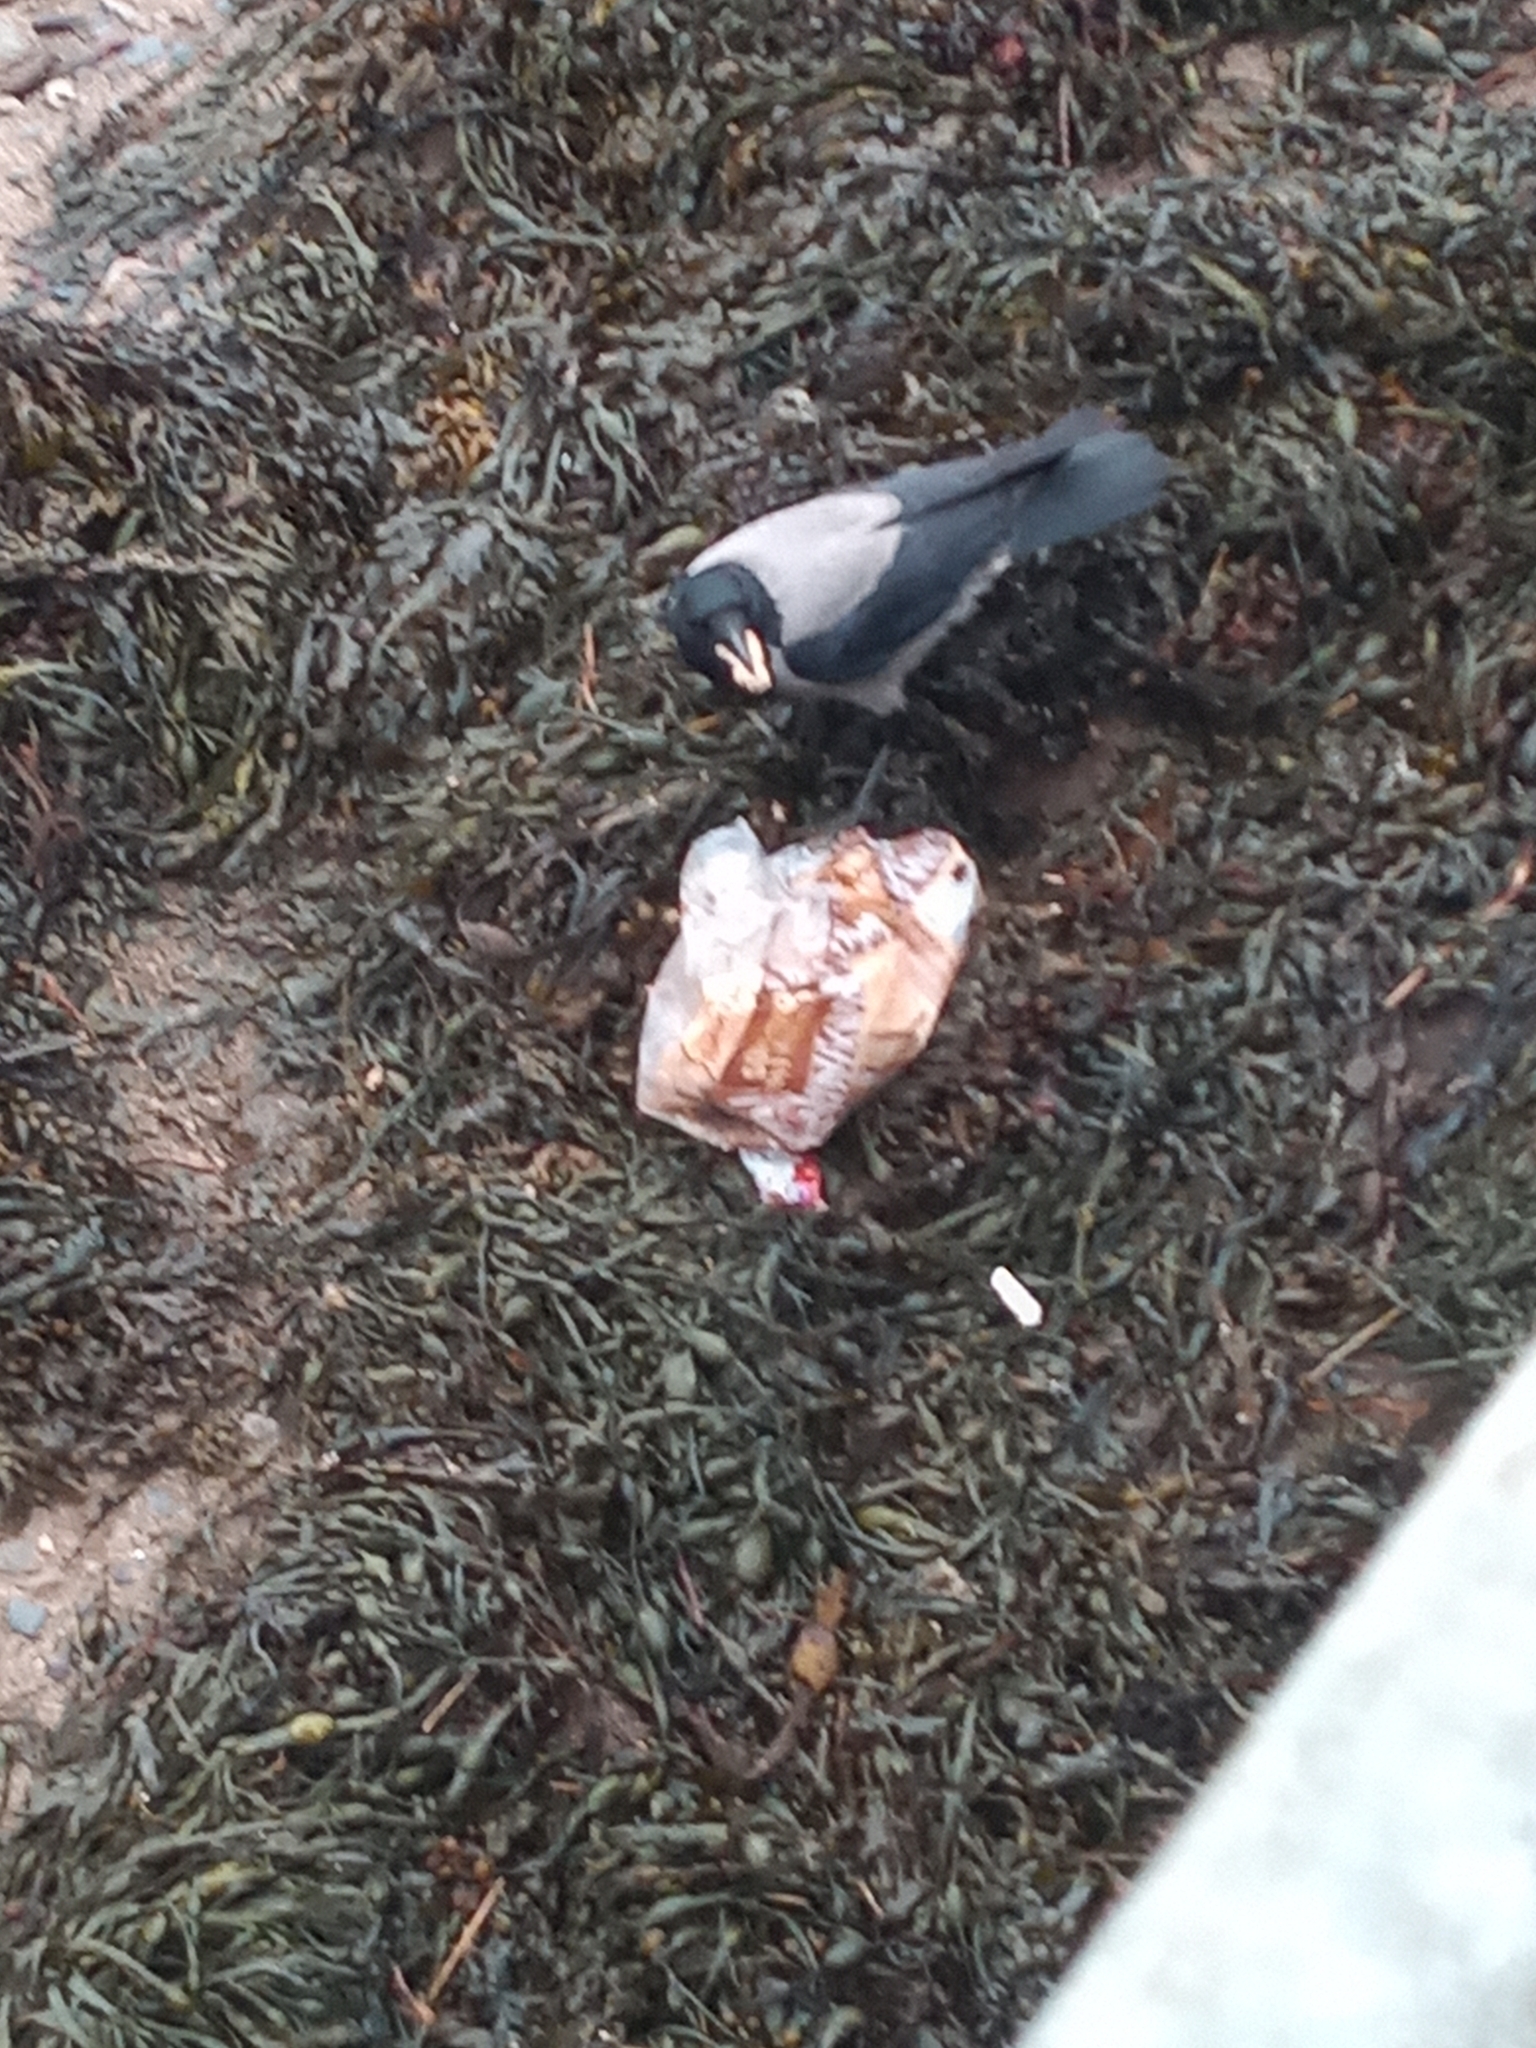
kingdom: Animalia
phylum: Chordata
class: Aves
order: Passeriformes
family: Corvidae
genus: Corvus
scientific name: Corvus cornix
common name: Hooded crow
